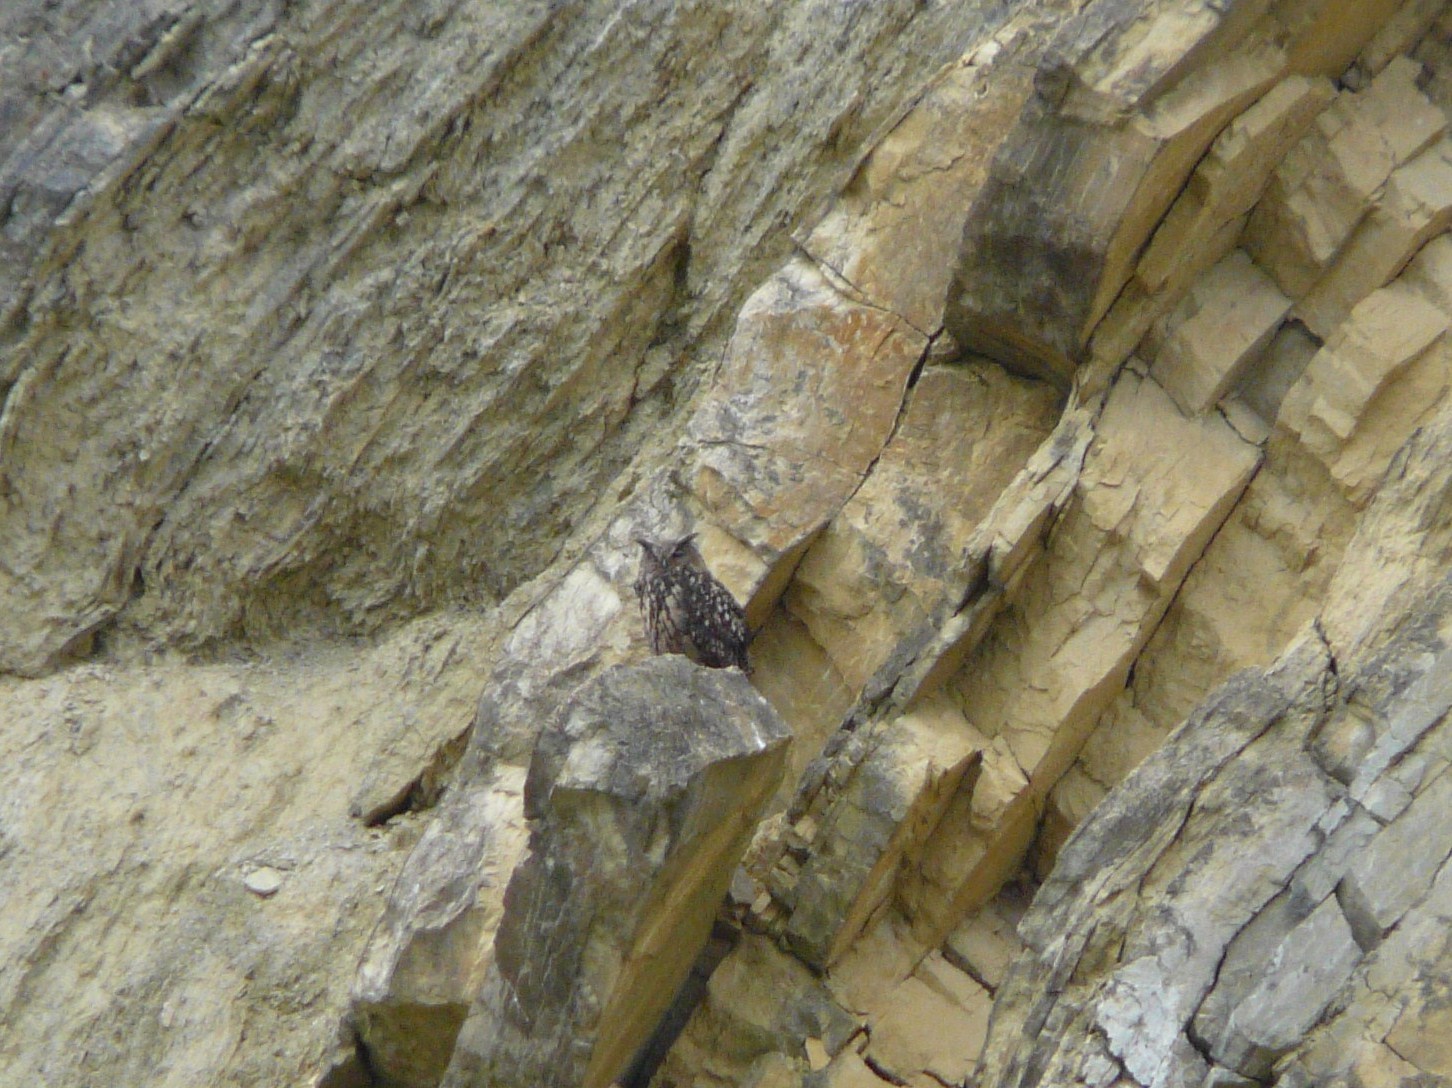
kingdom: Animalia
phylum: Chordata
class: Aves
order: Strigiformes
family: Strigidae
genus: Bubo
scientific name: Bubo bubo
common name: Eurasian eagle-owl
